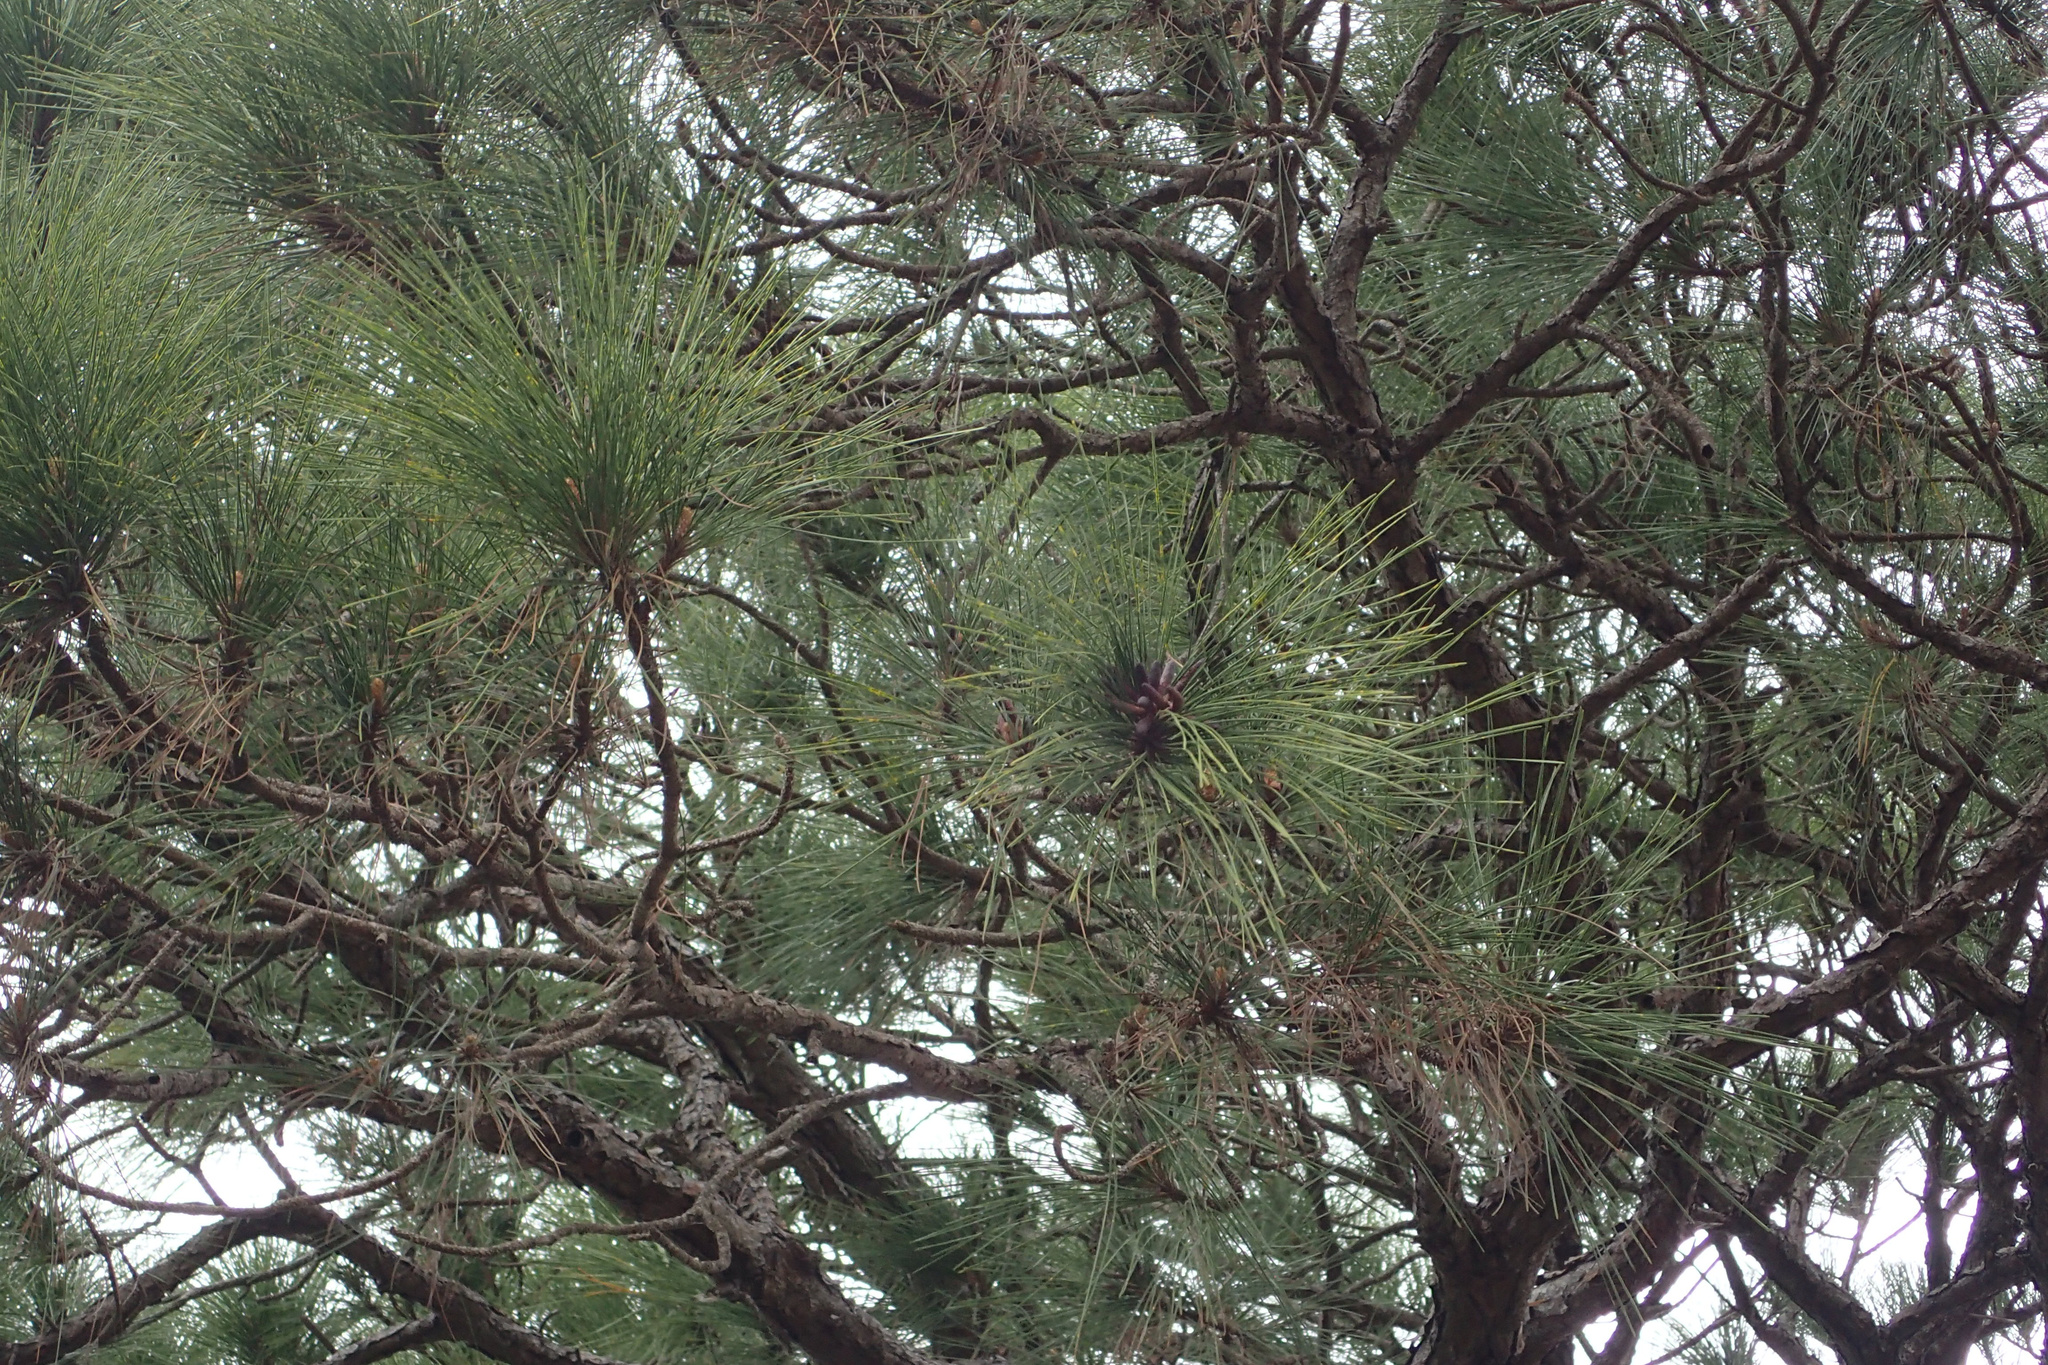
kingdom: Plantae
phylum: Tracheophyta
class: Pinopsida
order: Pinales
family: Pinaceae
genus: Pinus
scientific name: Pinus elliottii
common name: Slash pine
